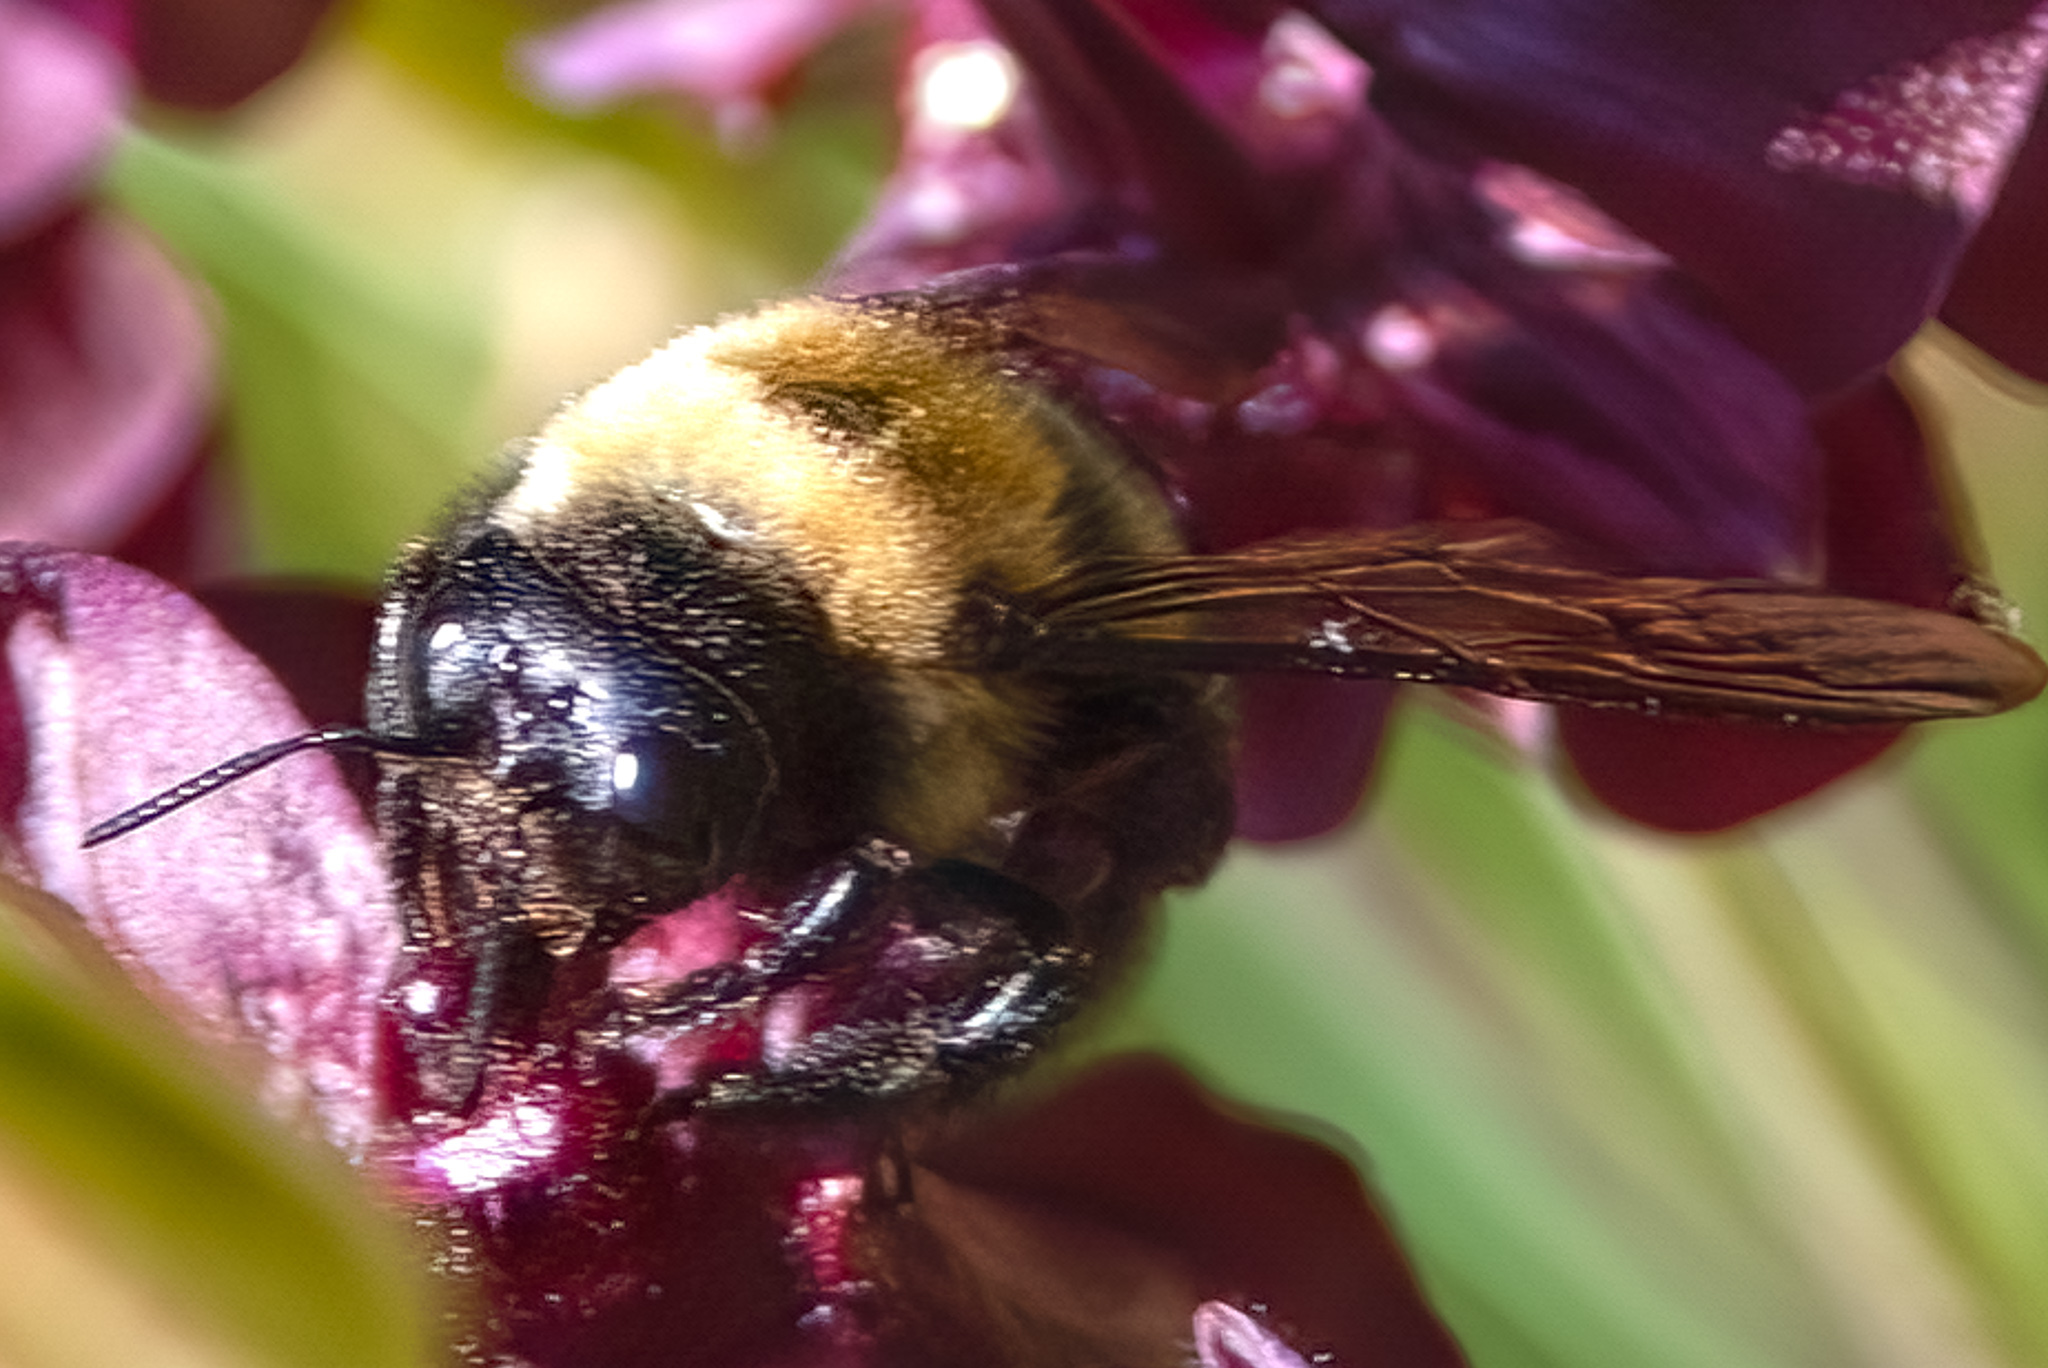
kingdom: Animalia
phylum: Arthropoda
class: Insecta
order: Hymenoptera
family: Apidae
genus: Xylocopa
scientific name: Xylocopa virginica
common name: Carpenter bee
